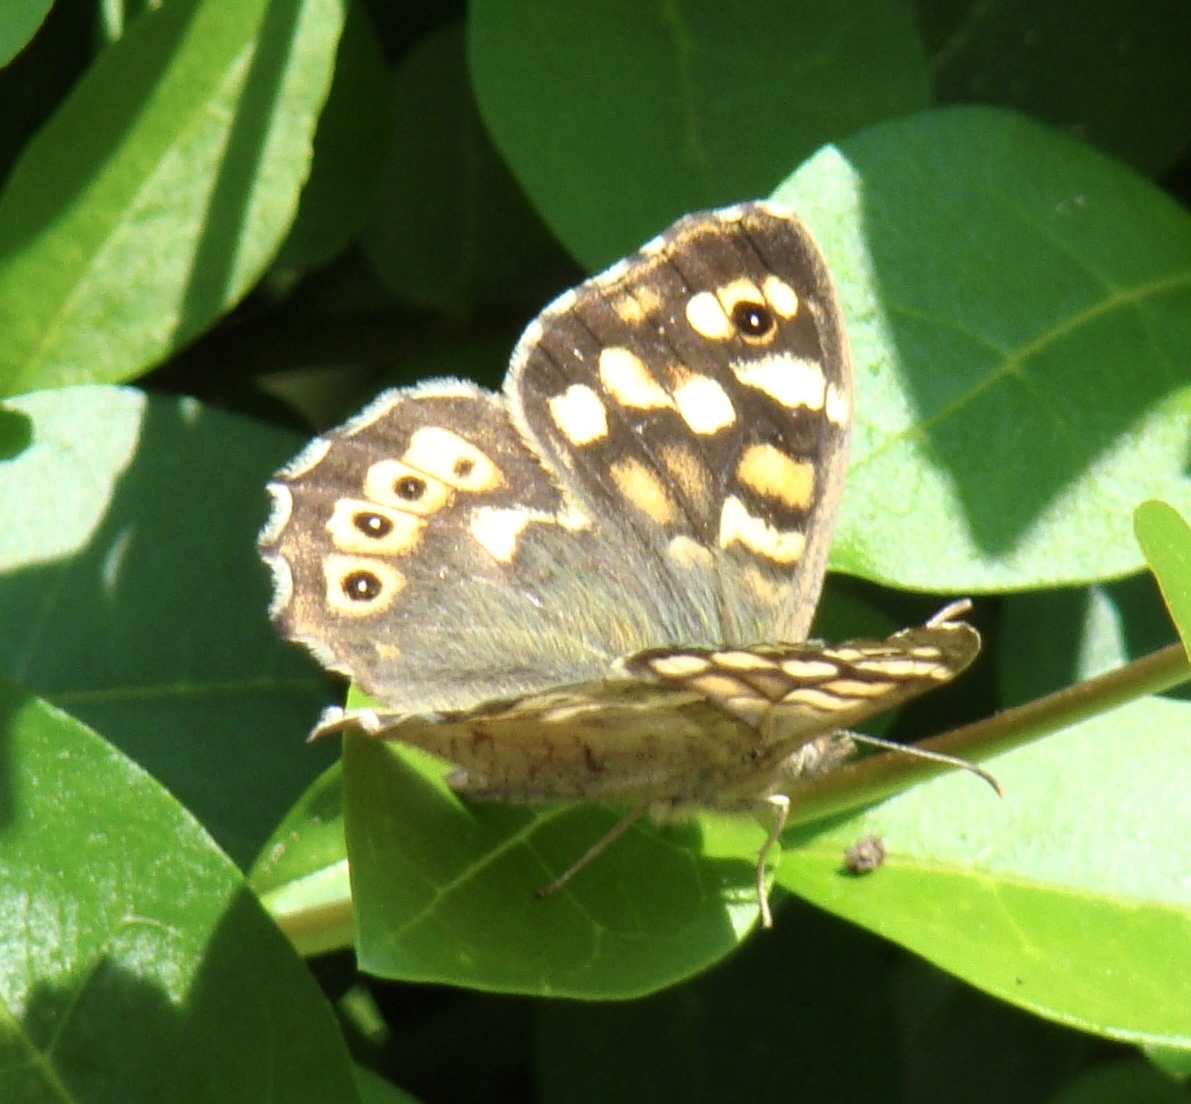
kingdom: Animalia
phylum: Arthropoda
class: Insecta
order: Lepidoptera
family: Nymphalidae
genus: Pararge
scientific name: Pararge aegeria
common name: Speckled wood
